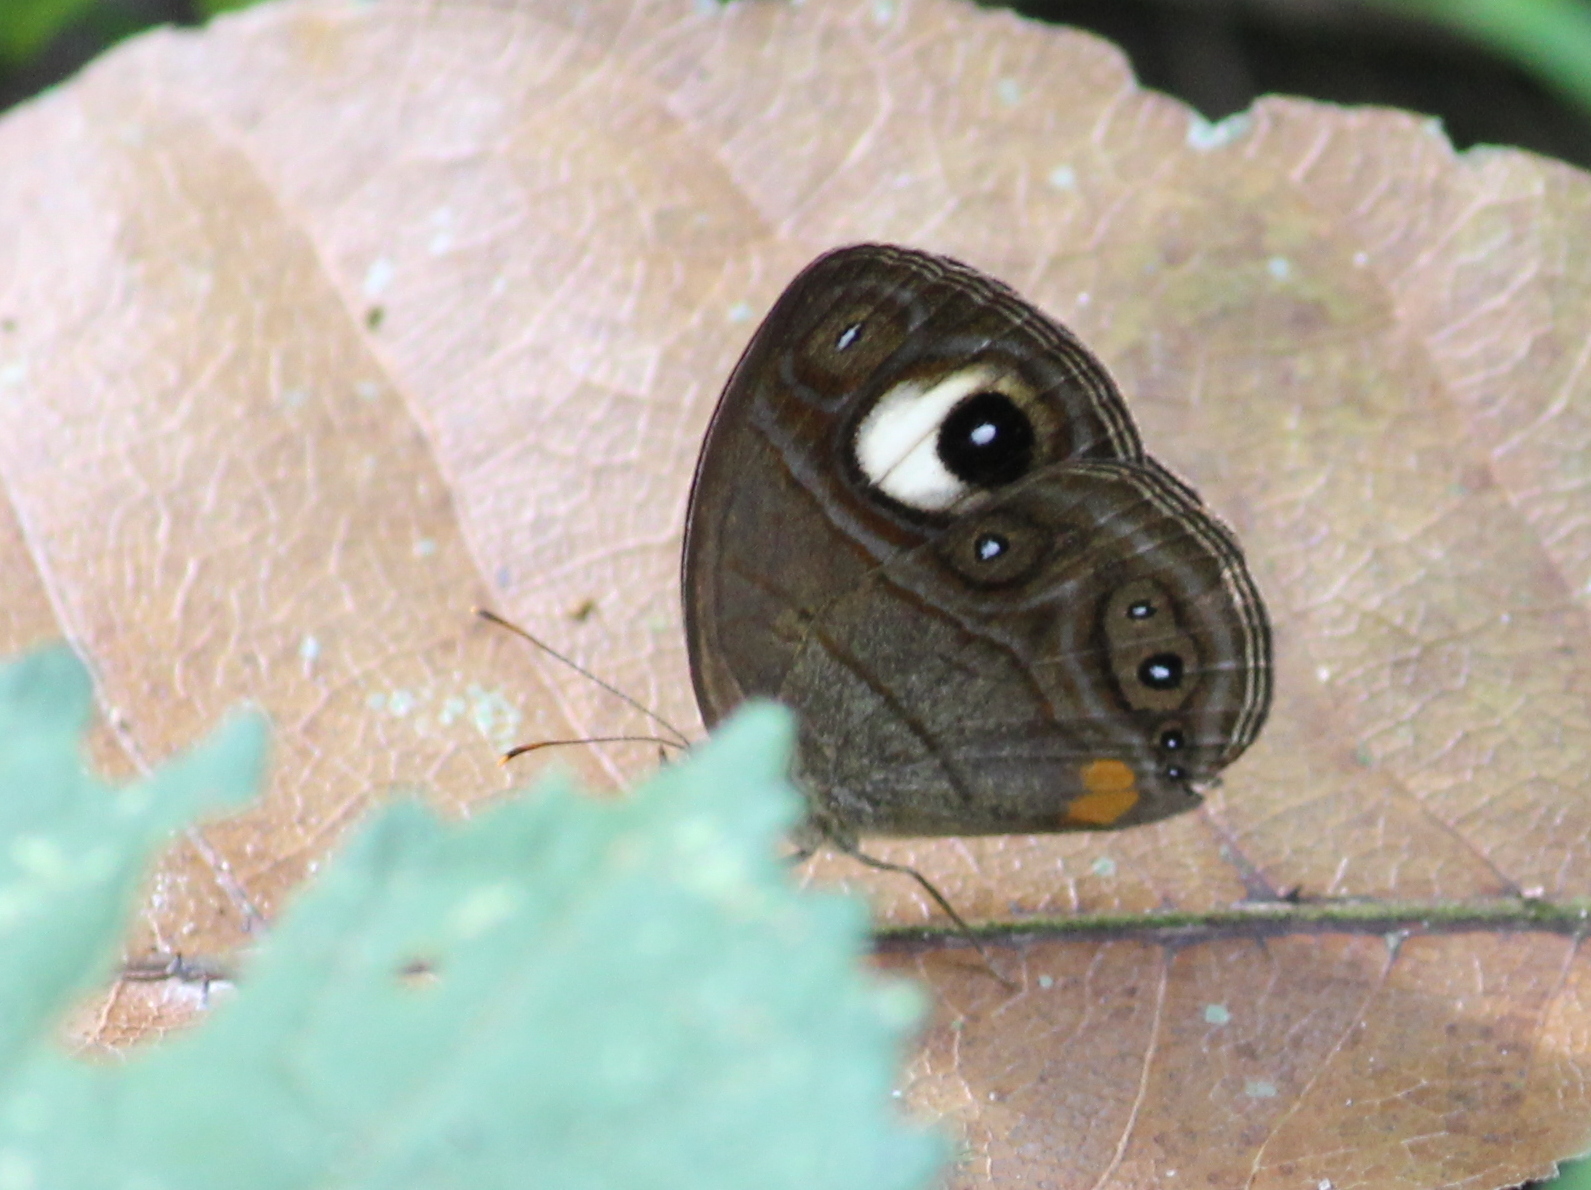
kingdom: Animalia
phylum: Arthropoda
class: Insecta
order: Lepidoptera
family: Nymphalidae
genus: Mycalesis
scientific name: Mycalesis patnia
